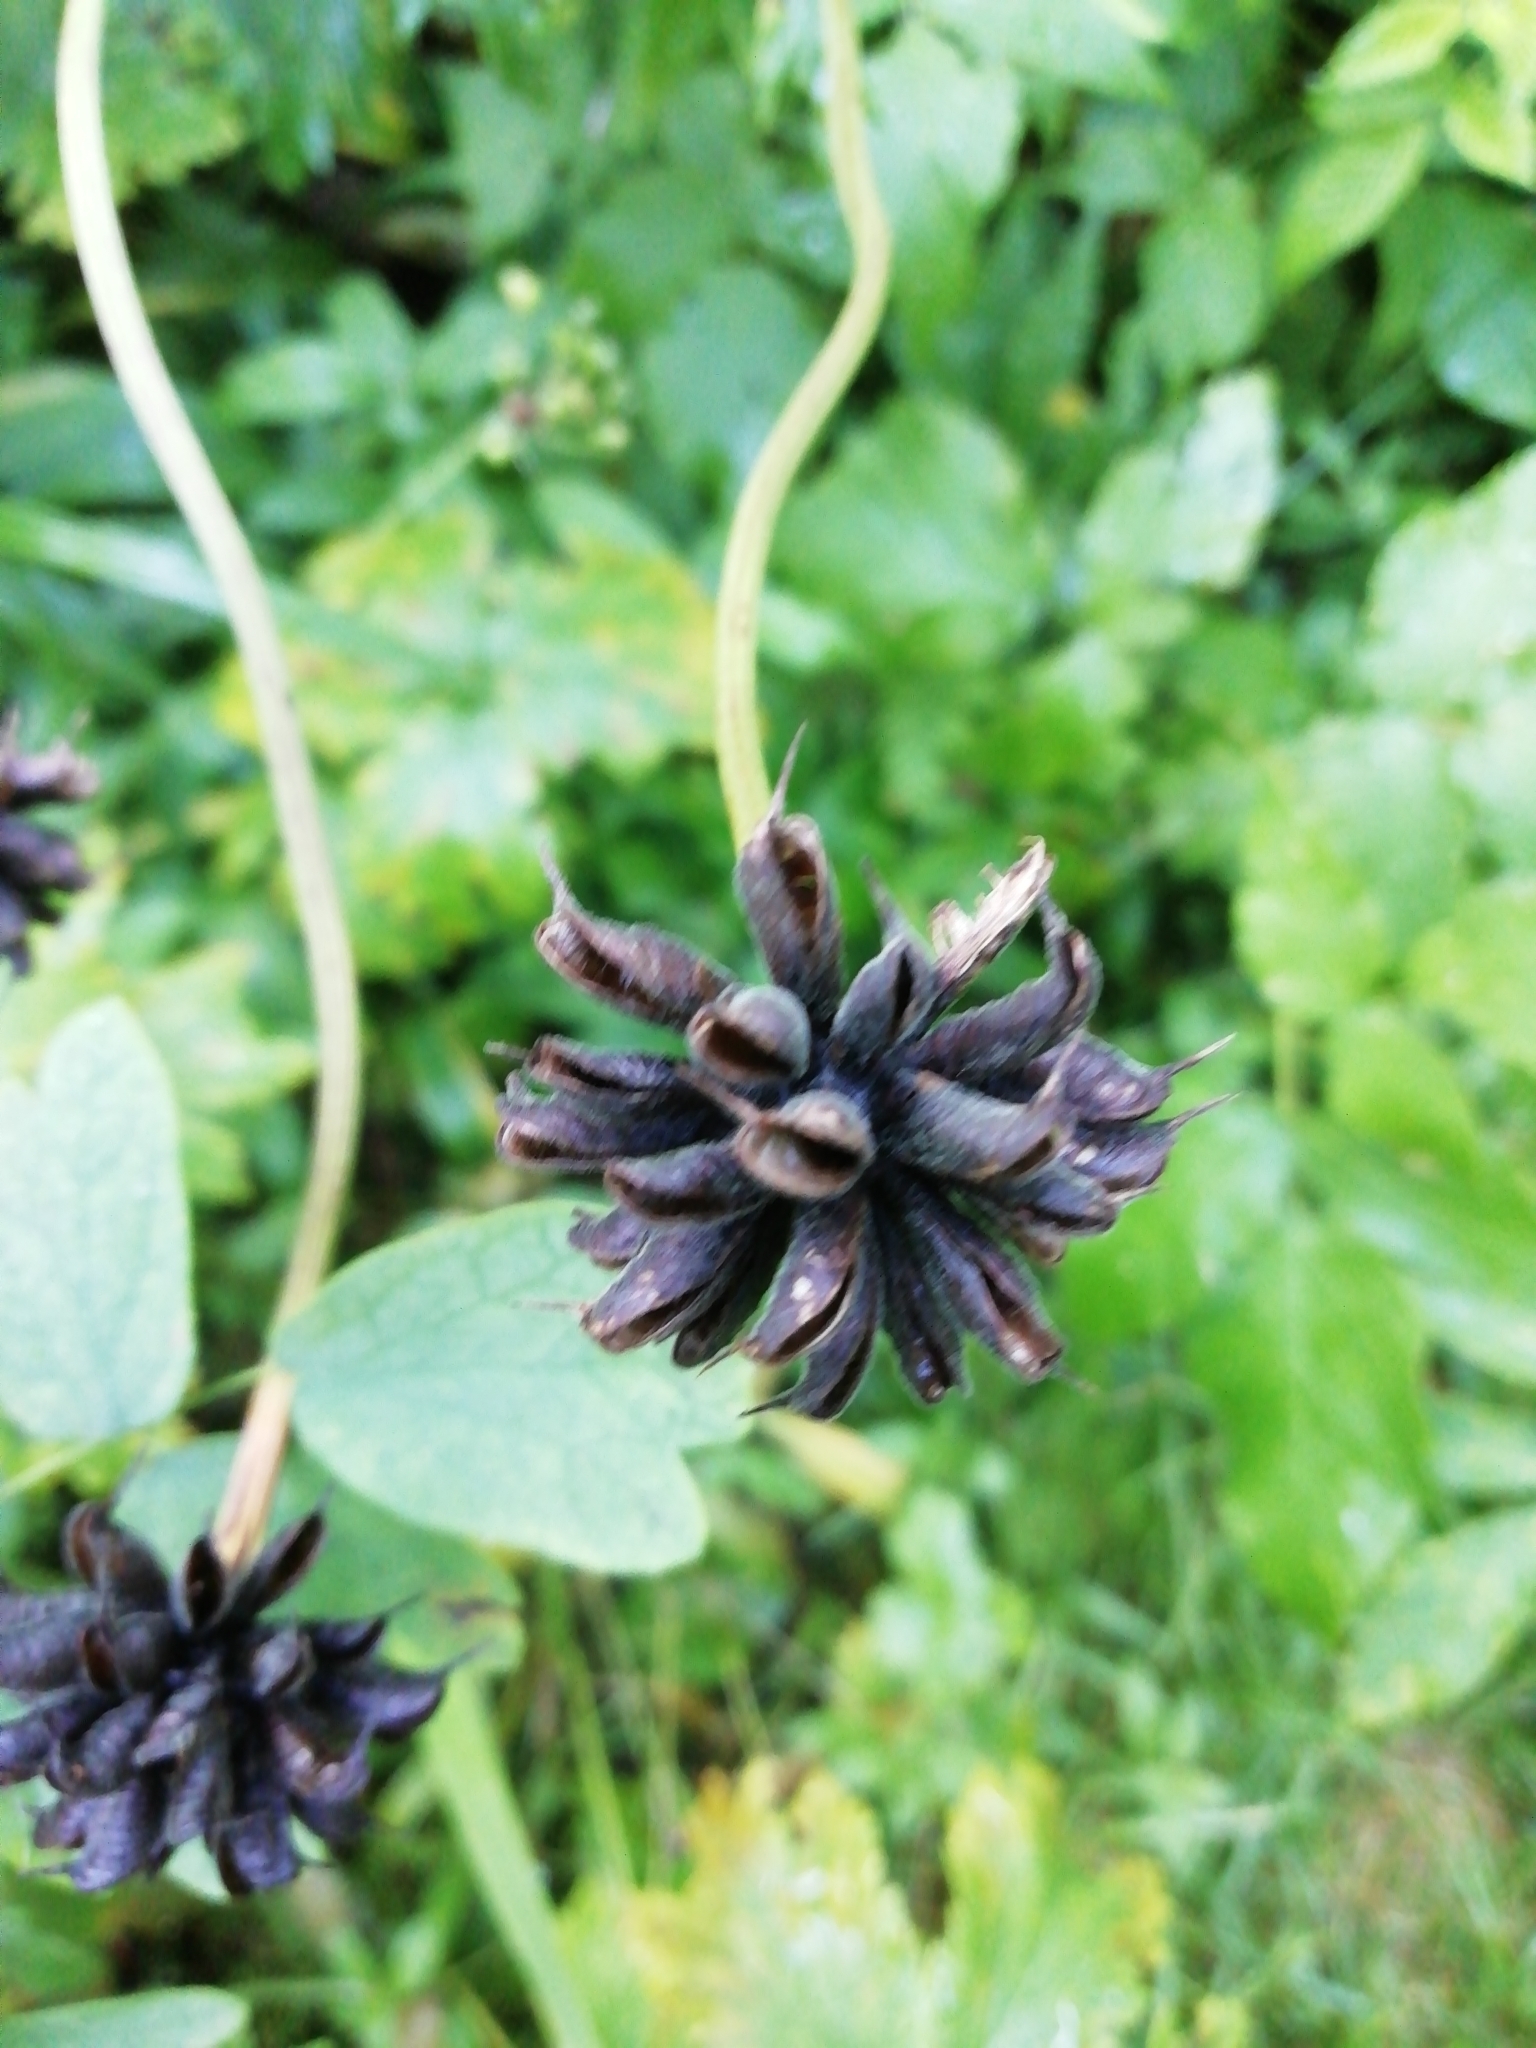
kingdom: Plantae
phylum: Tracheophyta
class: Magnoliopsida
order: Ranunculales
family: Ranunculaceae
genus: Trollius
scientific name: Trollius asiaticus
